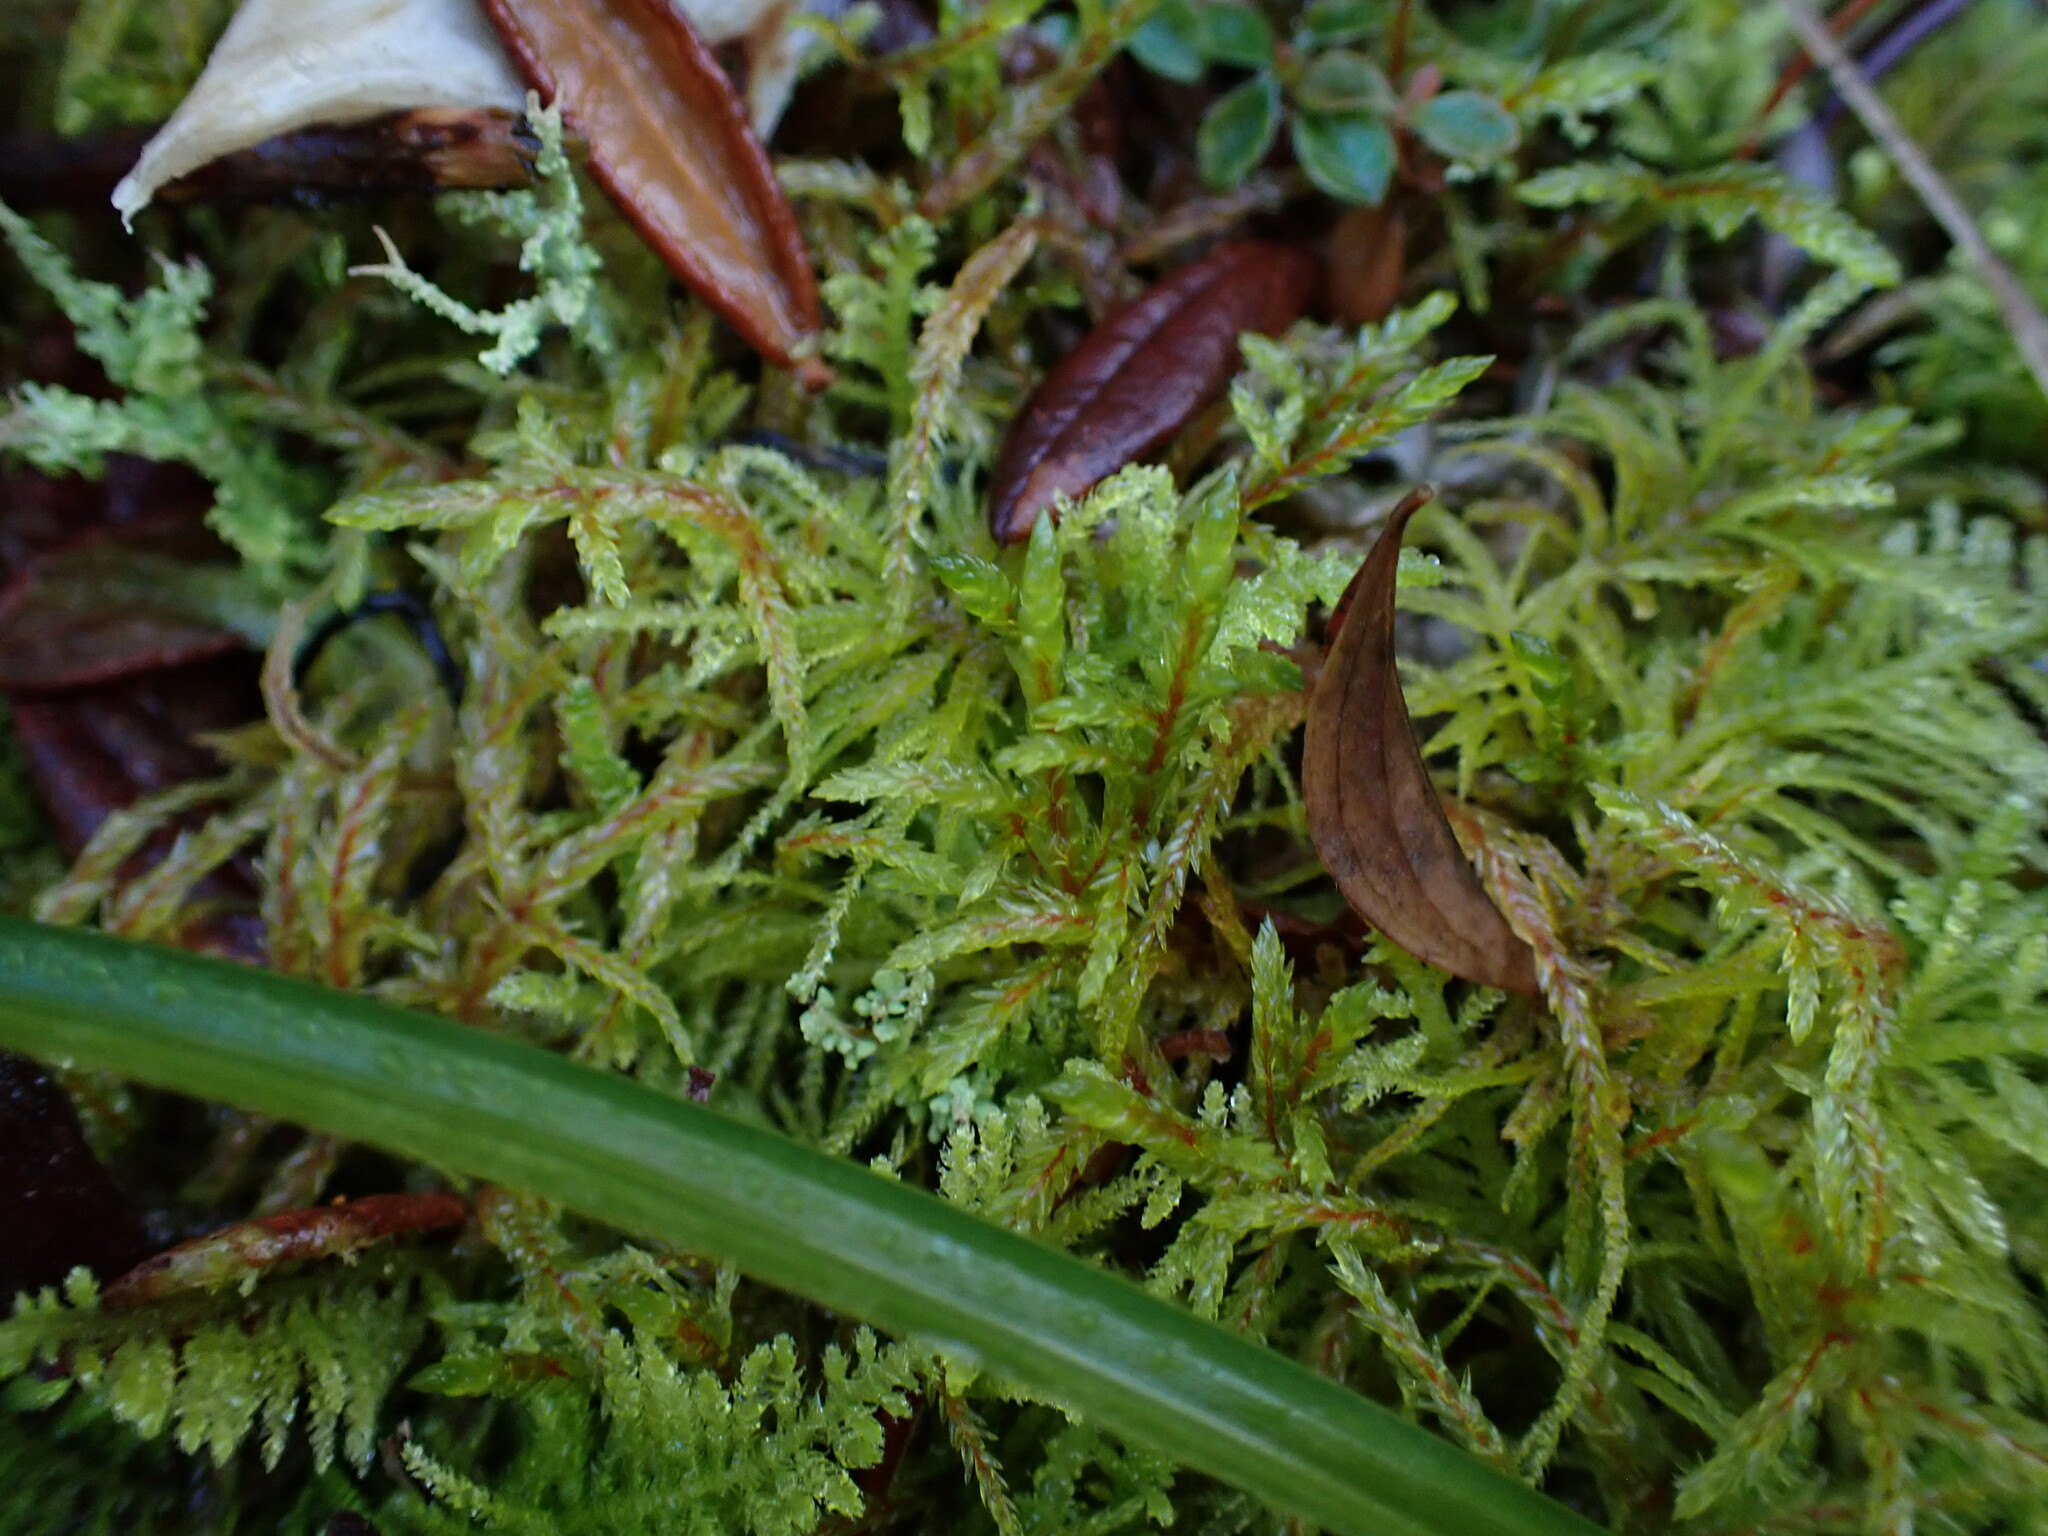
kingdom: Plantae
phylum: Bryophyta
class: Bryopsida
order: Hypnales
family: Hylocomiaceae
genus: Pleurozium
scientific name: Pleurozium schreberi
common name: Red-stemmed feather moss
